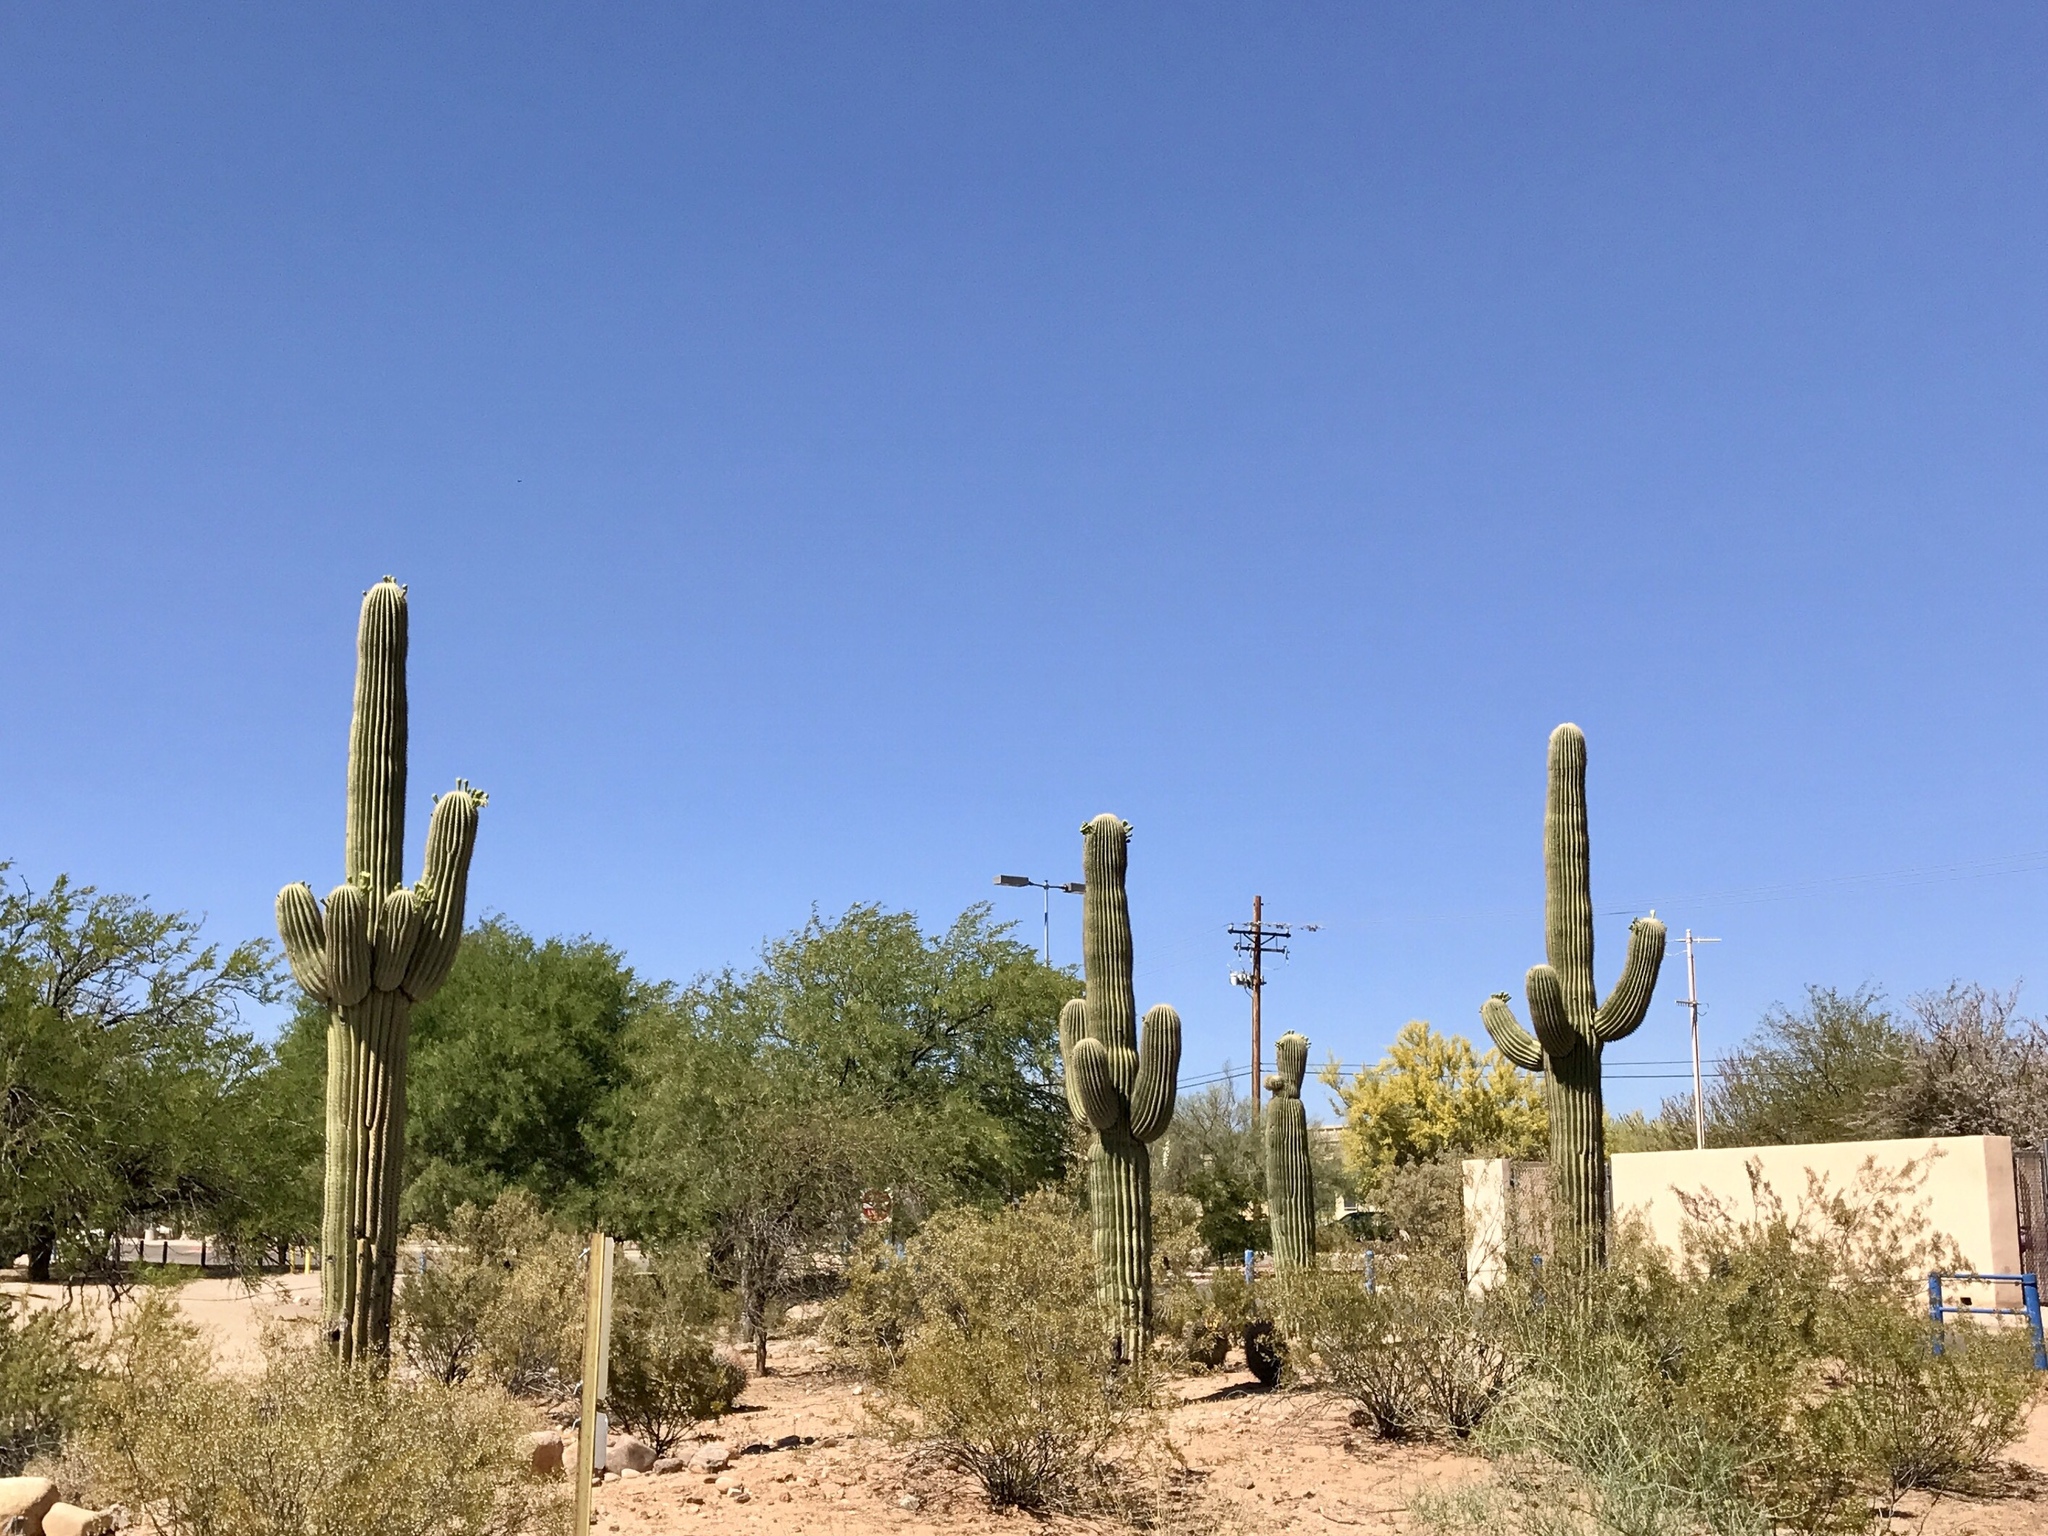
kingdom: Plantae
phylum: Tracheophyta
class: Magnoliopsida
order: Caryophyllales
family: Cactaceae
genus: Carnegiea
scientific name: Carnegiea gigantea
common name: Saguaro
